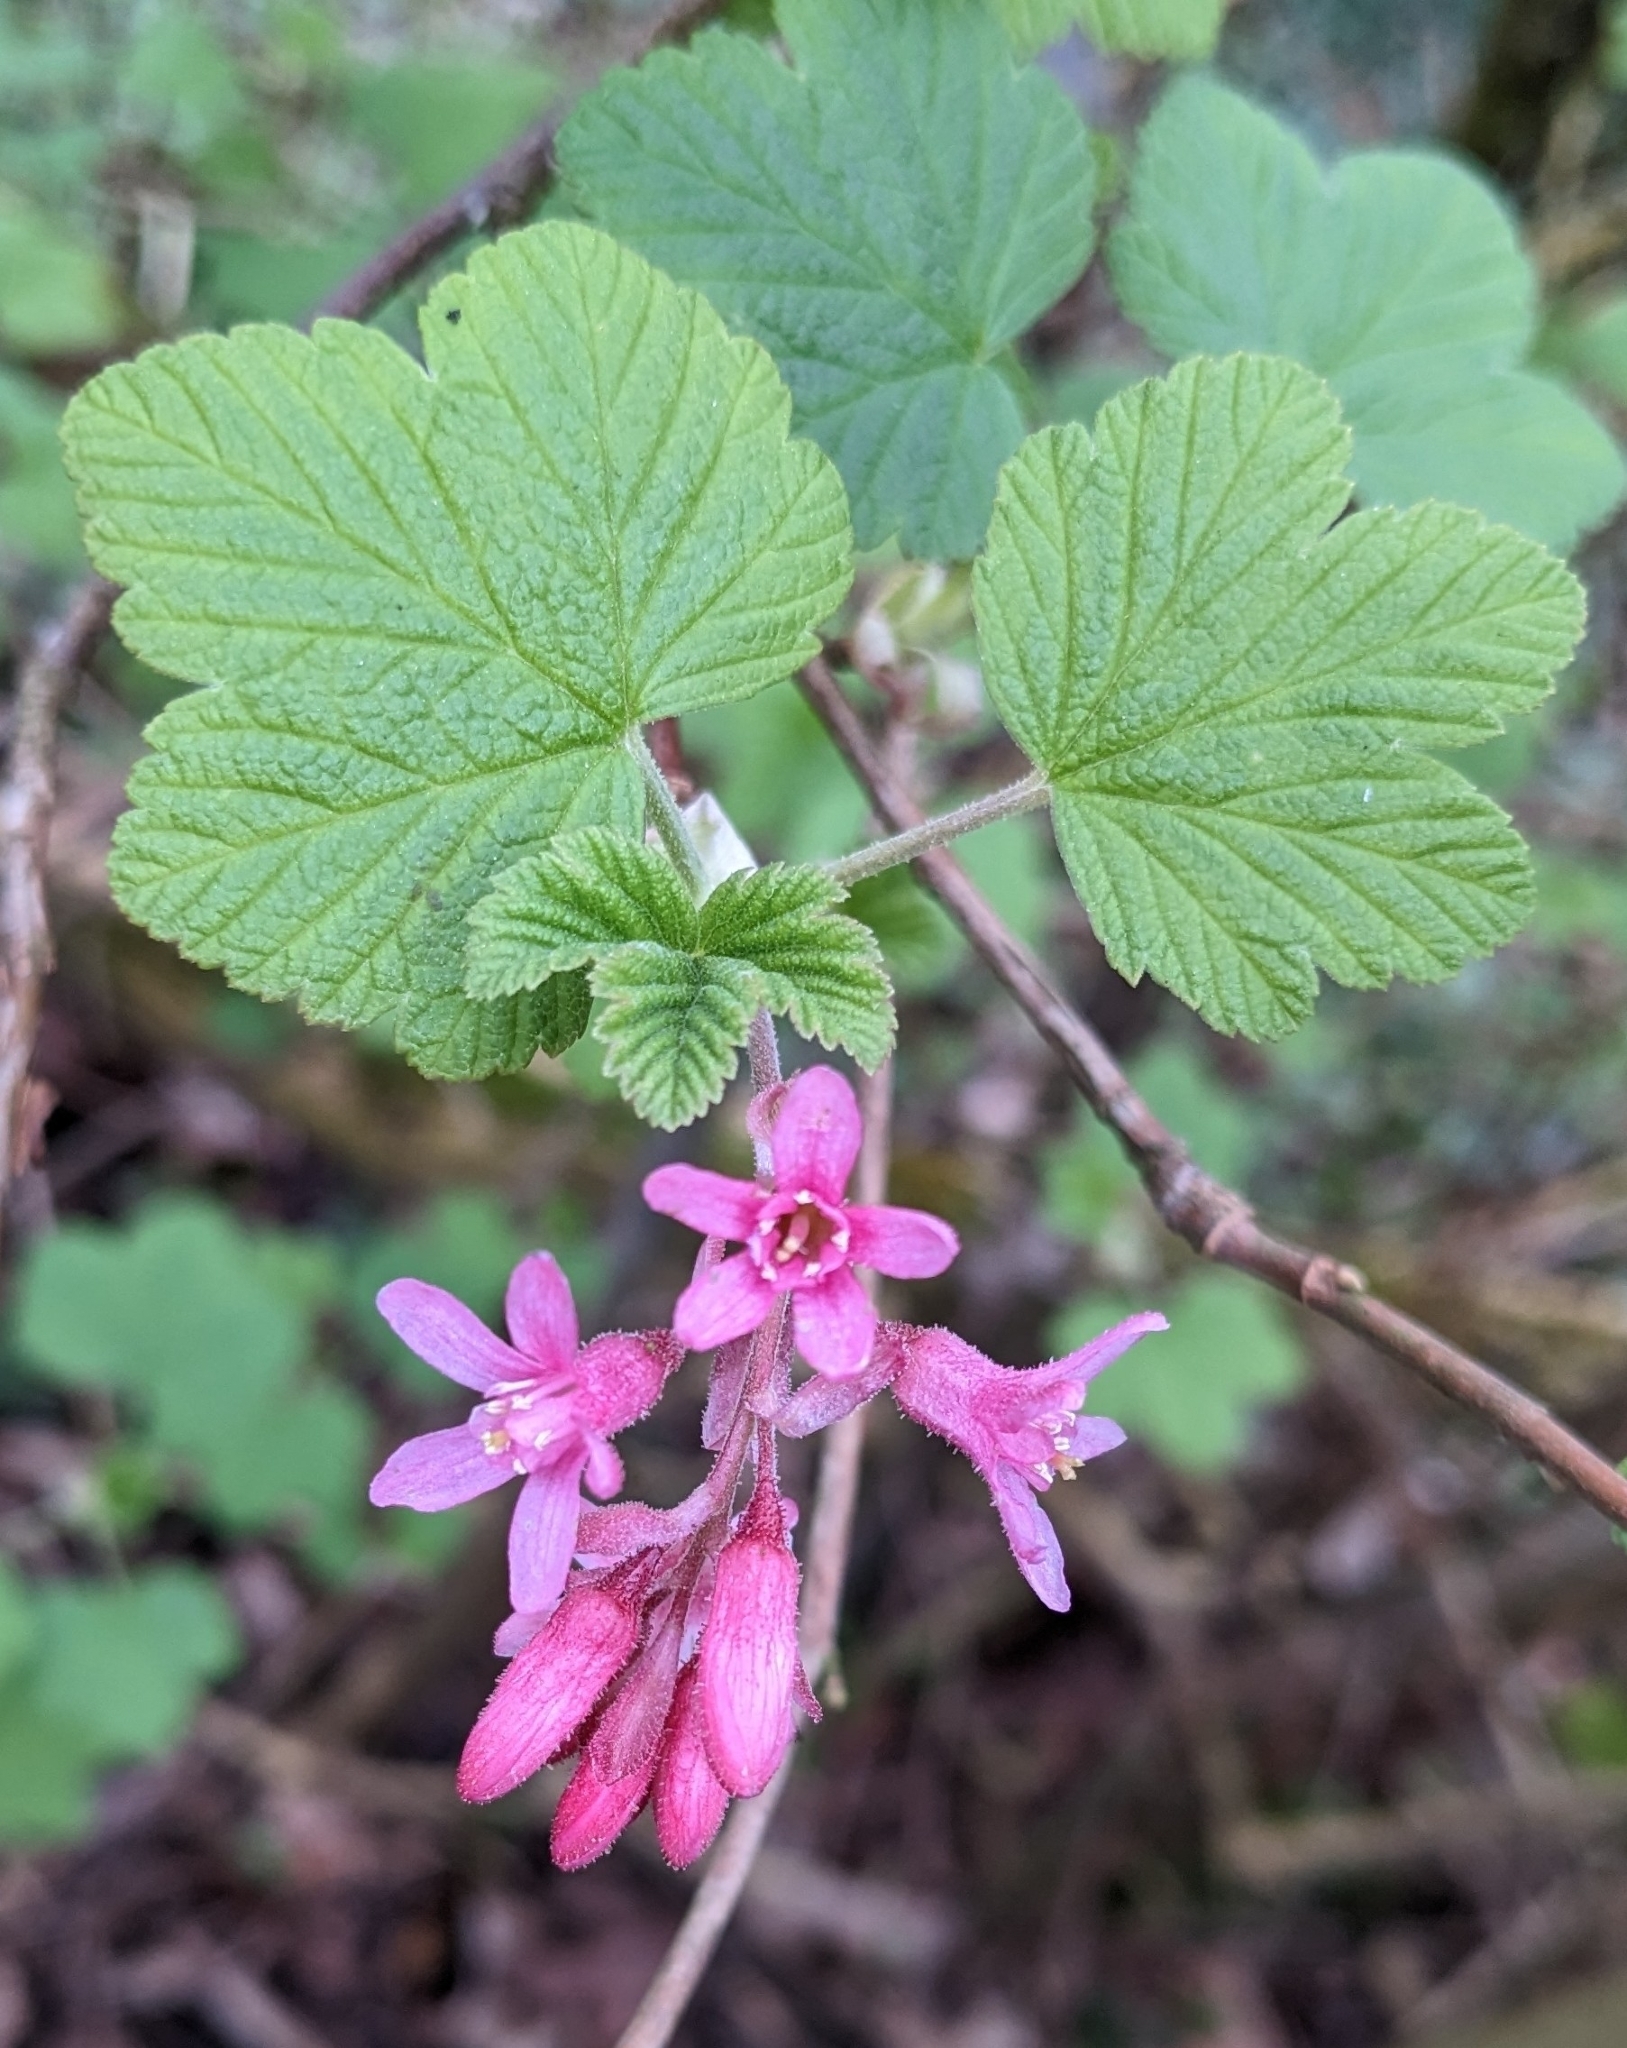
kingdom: Plantae
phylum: Tracheophyta
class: Magnoliopsida
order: Saxifragales
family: Grossulariaceae
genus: Ribes
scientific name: Ribes sanguineum
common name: Flowering currant
